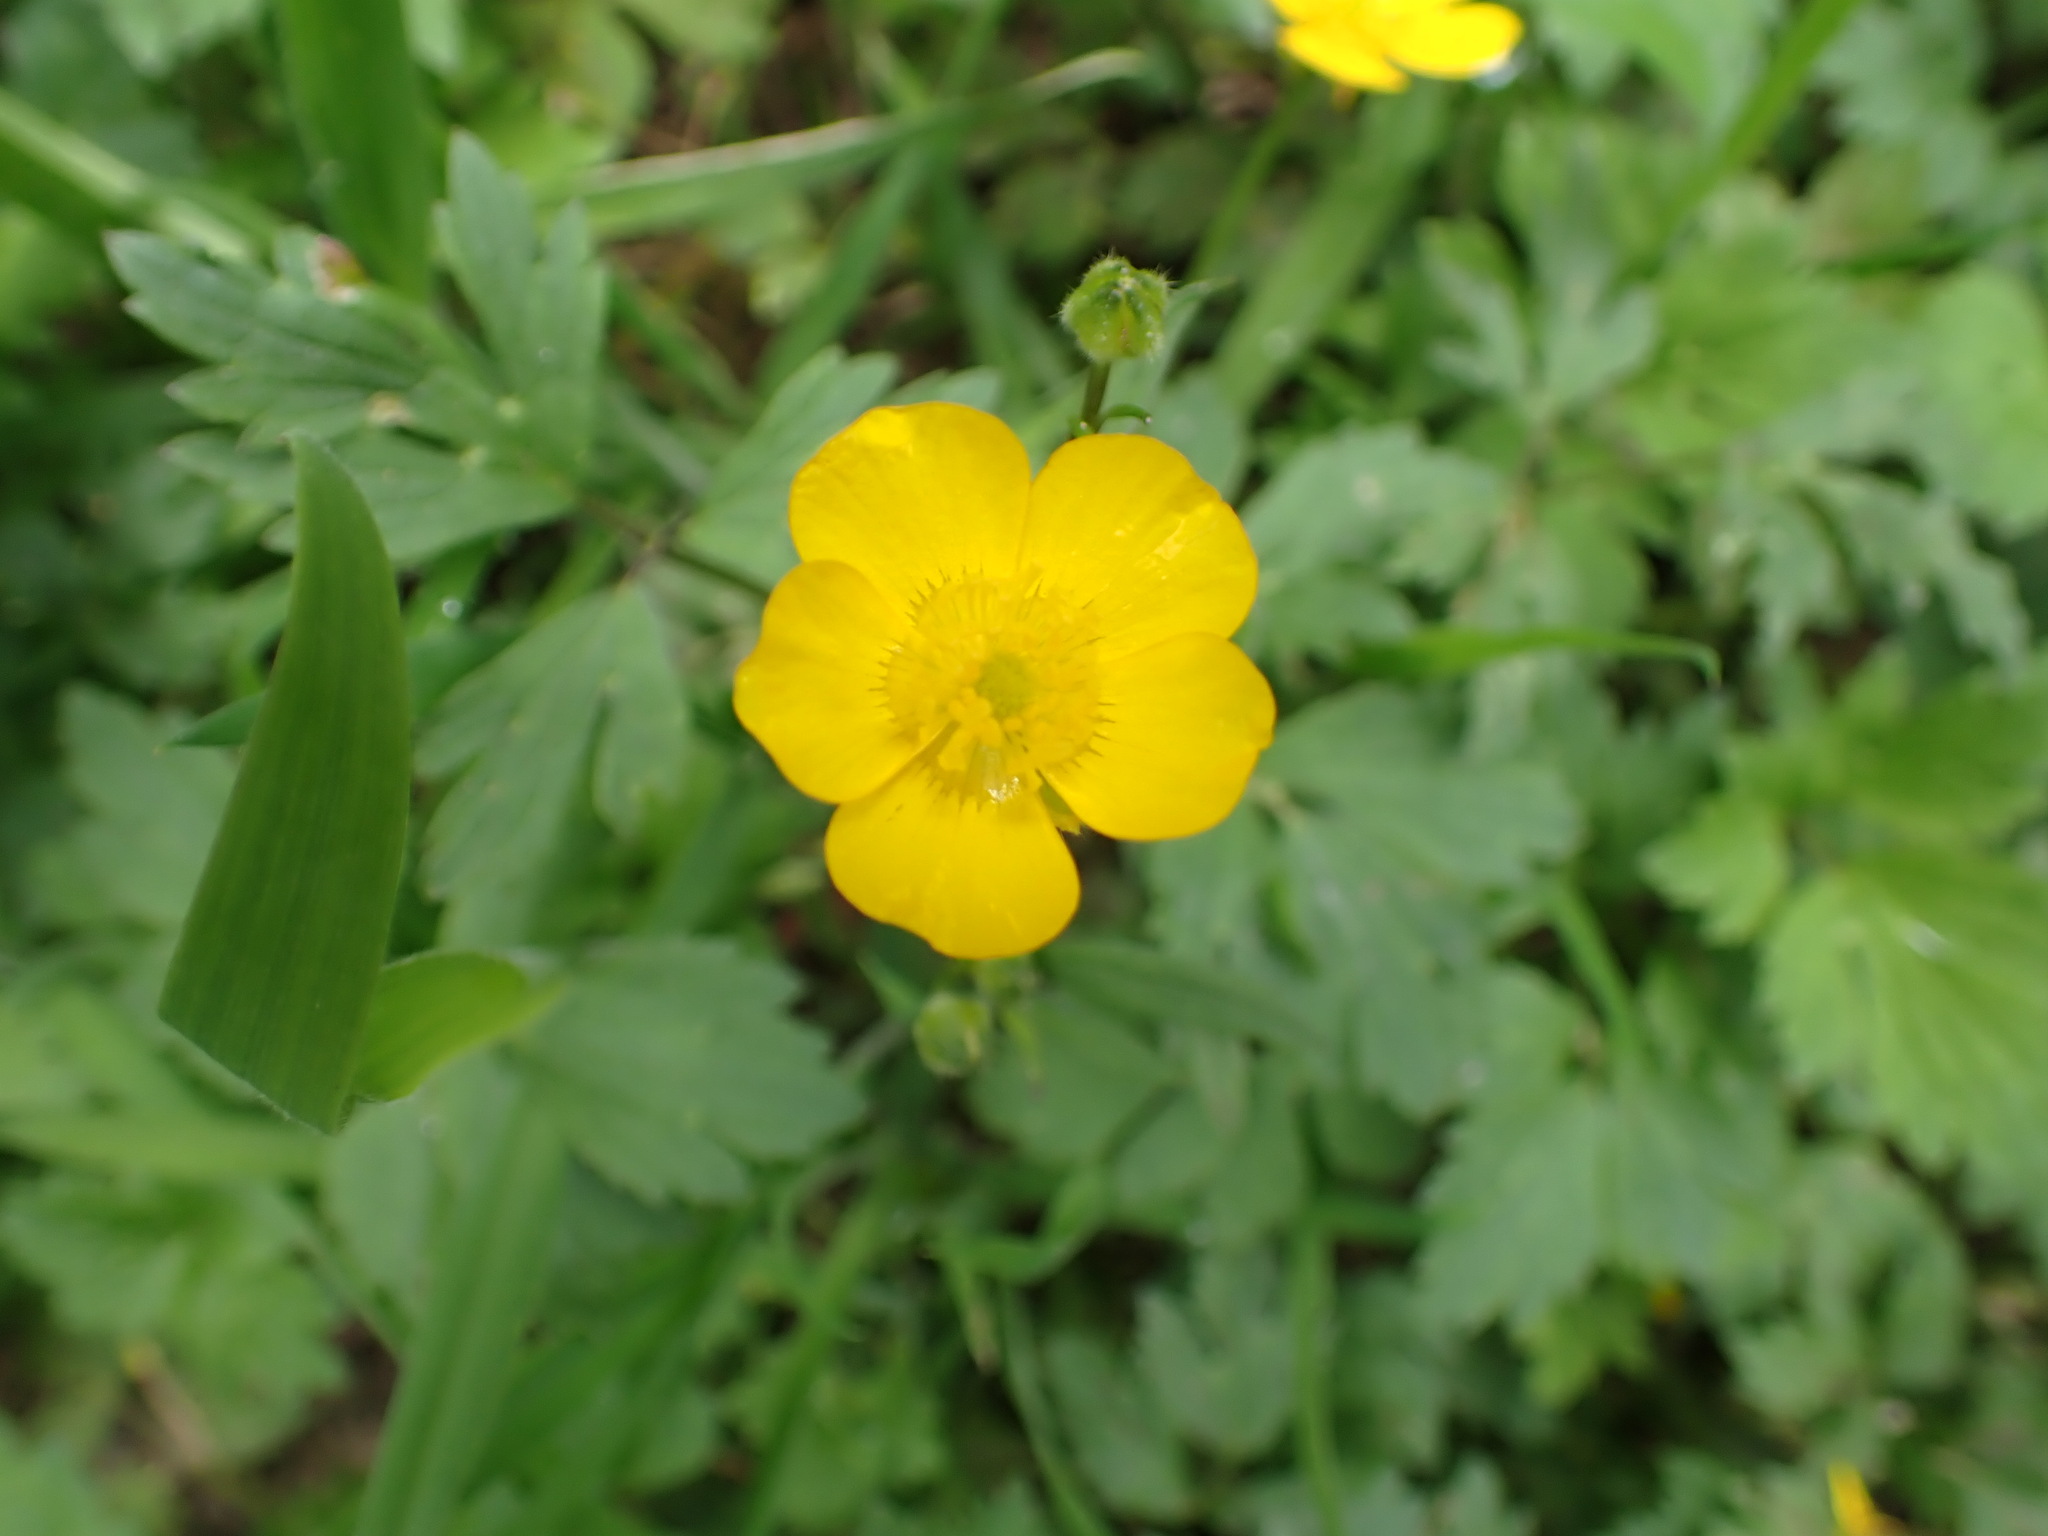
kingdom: Plantae
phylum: Tracheophyta
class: Magnoliopsida
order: Ranunculales
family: Ranunculaceae
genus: Ranunculus
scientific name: Ranunculus repens
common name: Creeping buttercup
